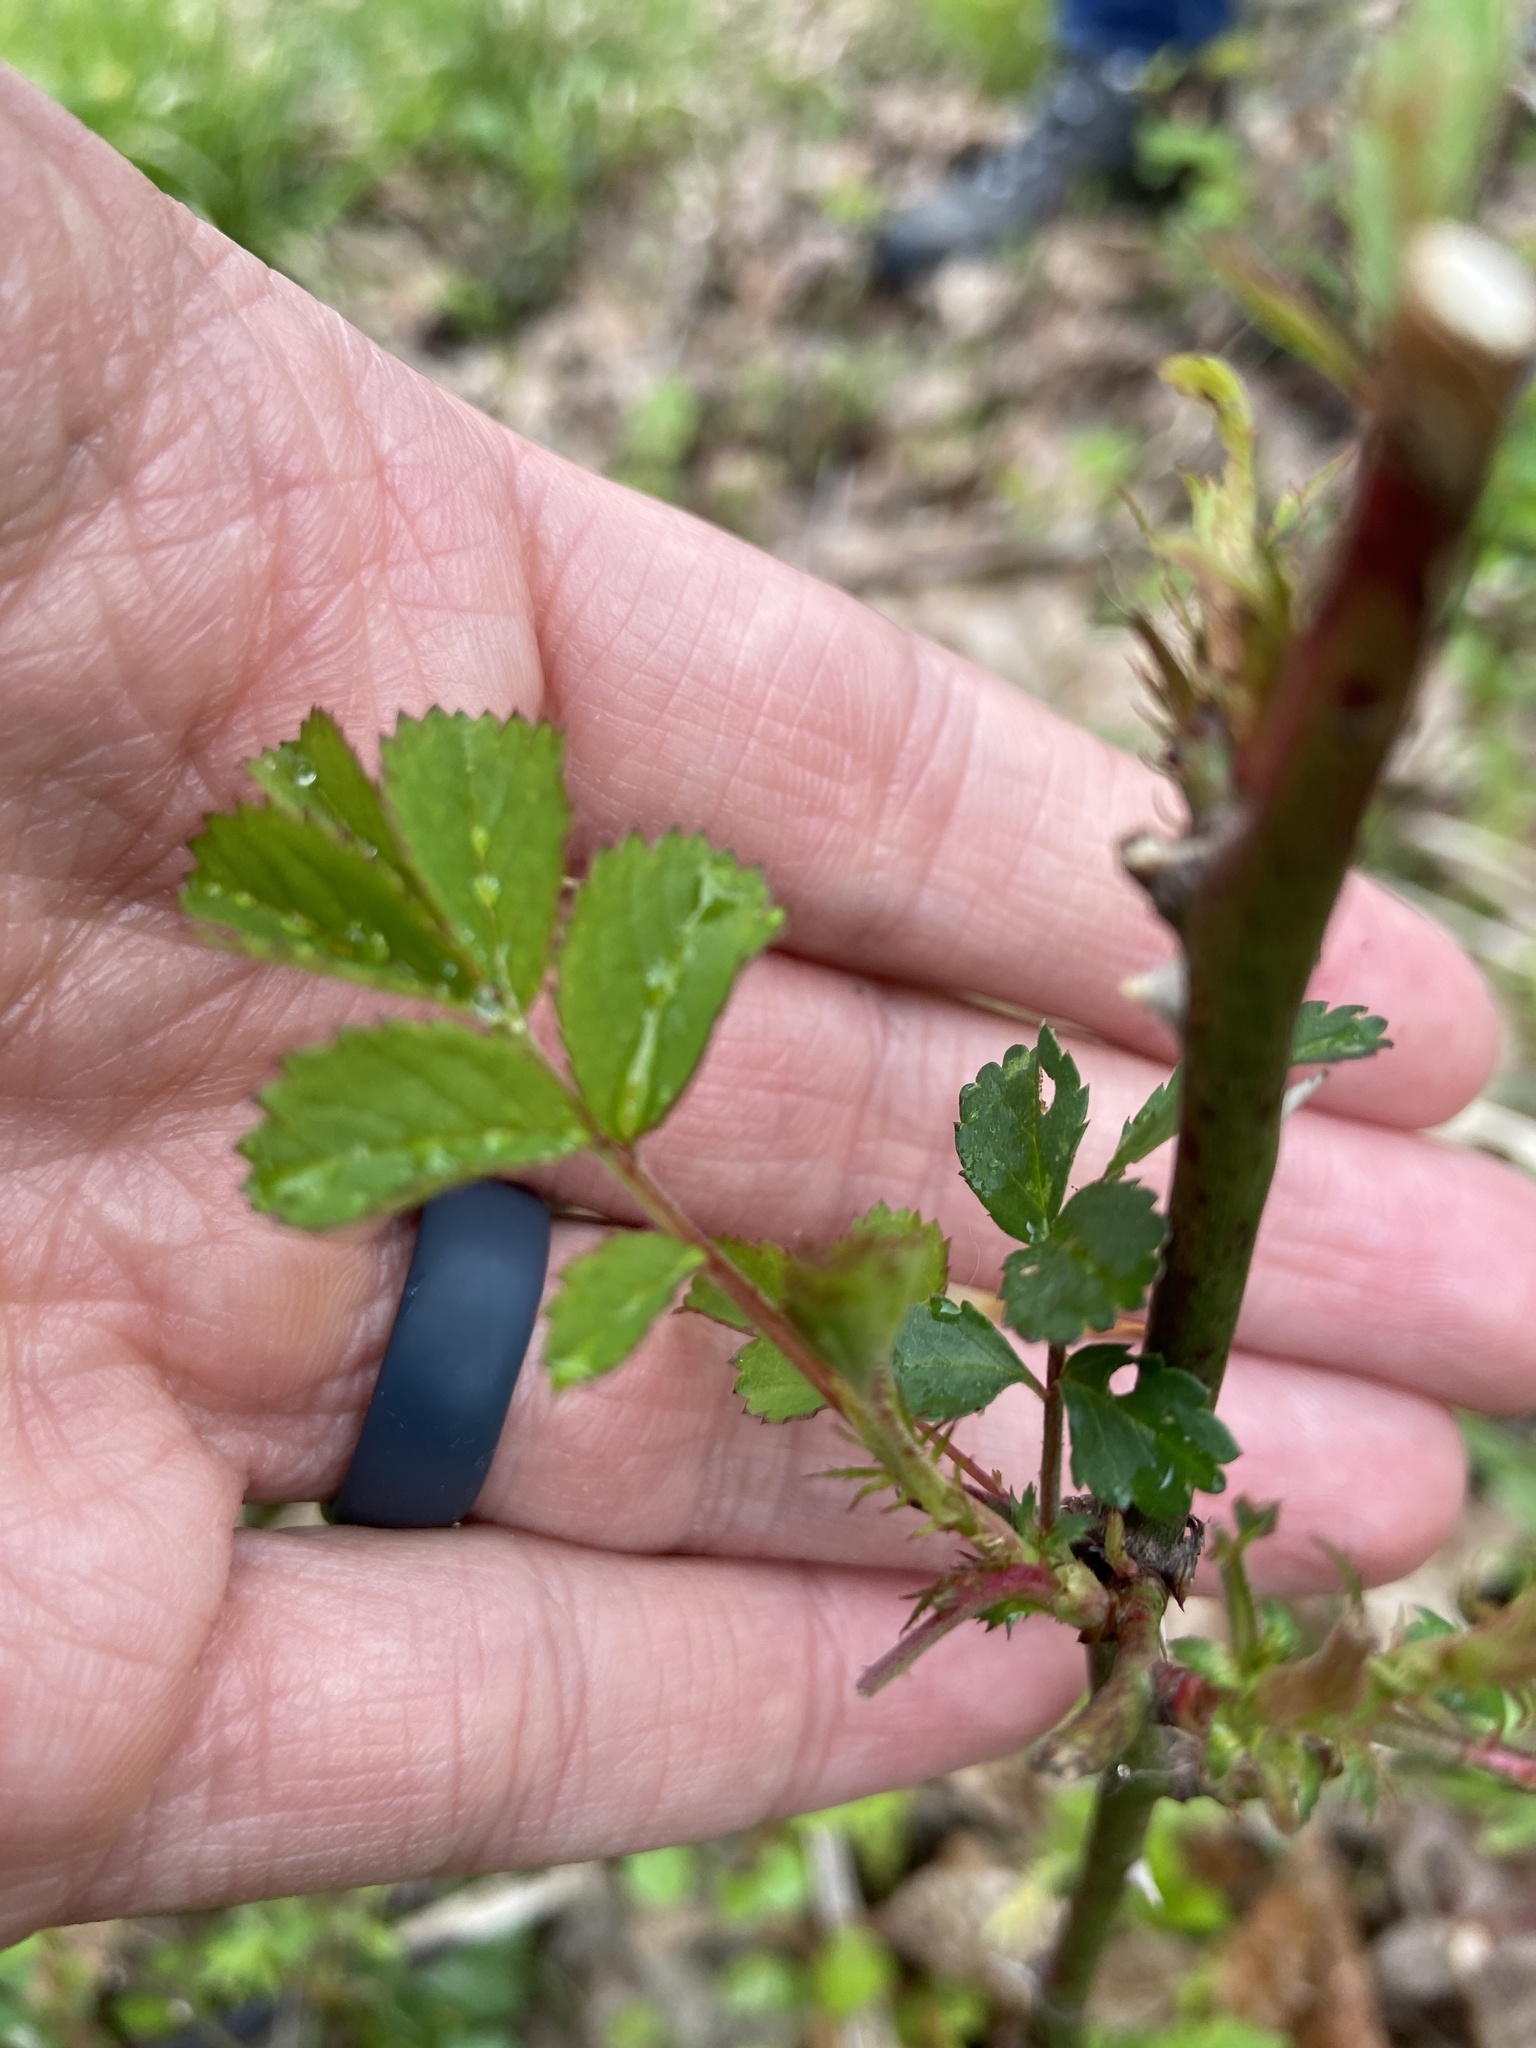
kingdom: Plantae
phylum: Tracheophyta
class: Magnoliopsida
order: Rosales
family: Rosaceae
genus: Rosa
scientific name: Rosa multiflora
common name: Multiflora rose
